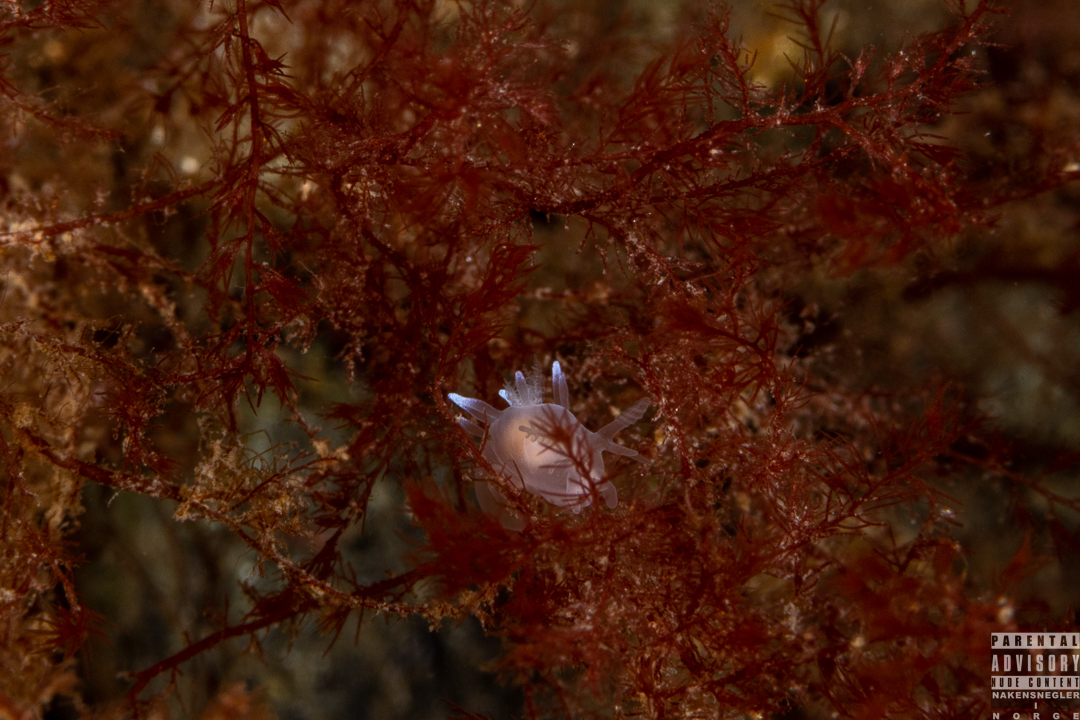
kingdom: Animalia
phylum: Mollusca
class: Gastropoda
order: Nudibranchia
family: Goniodorididae
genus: Ancula
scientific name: Ancula gibbosa
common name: Atlantic ancula
